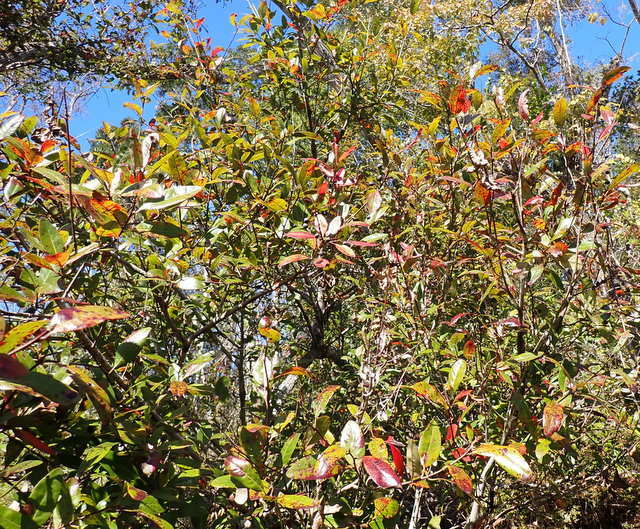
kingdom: Plantae
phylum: Tracheophyta
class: Magnoliopsida
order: Cornales
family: Nyssaceae
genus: Nyssa
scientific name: Nyssa biflora
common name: Swamp blackgum
